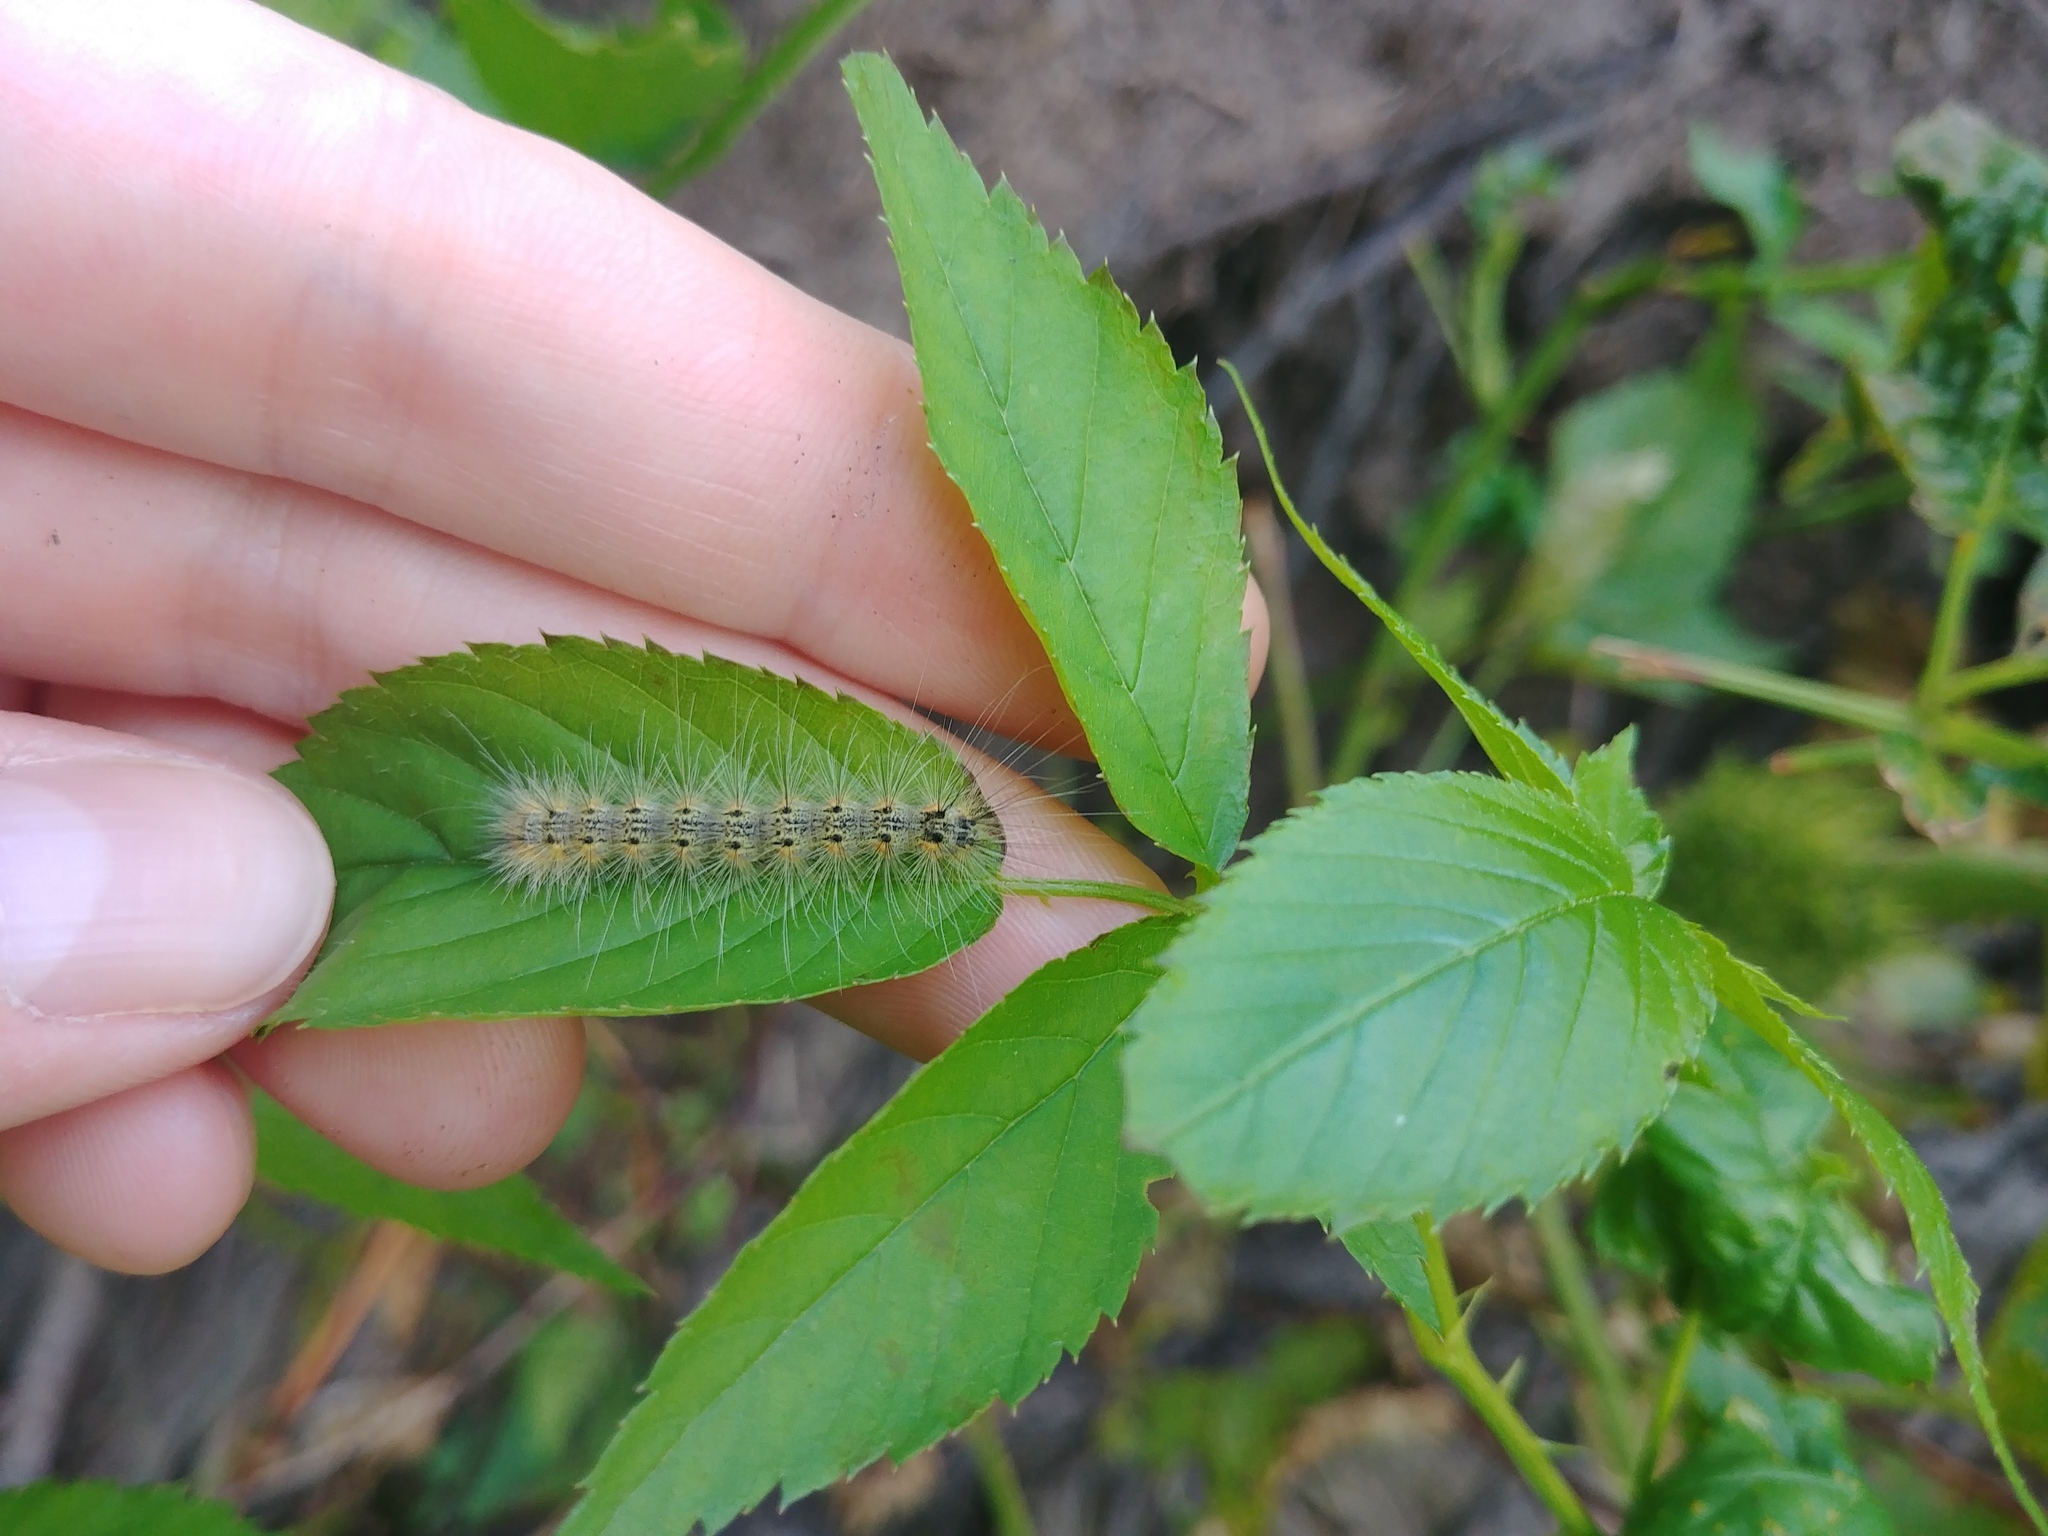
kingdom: Animalia
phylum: Arthropoda
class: Insecta
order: Lepidoptera
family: Erebidae
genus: Hyphantria
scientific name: Hyphantria cunea
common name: American white moth
